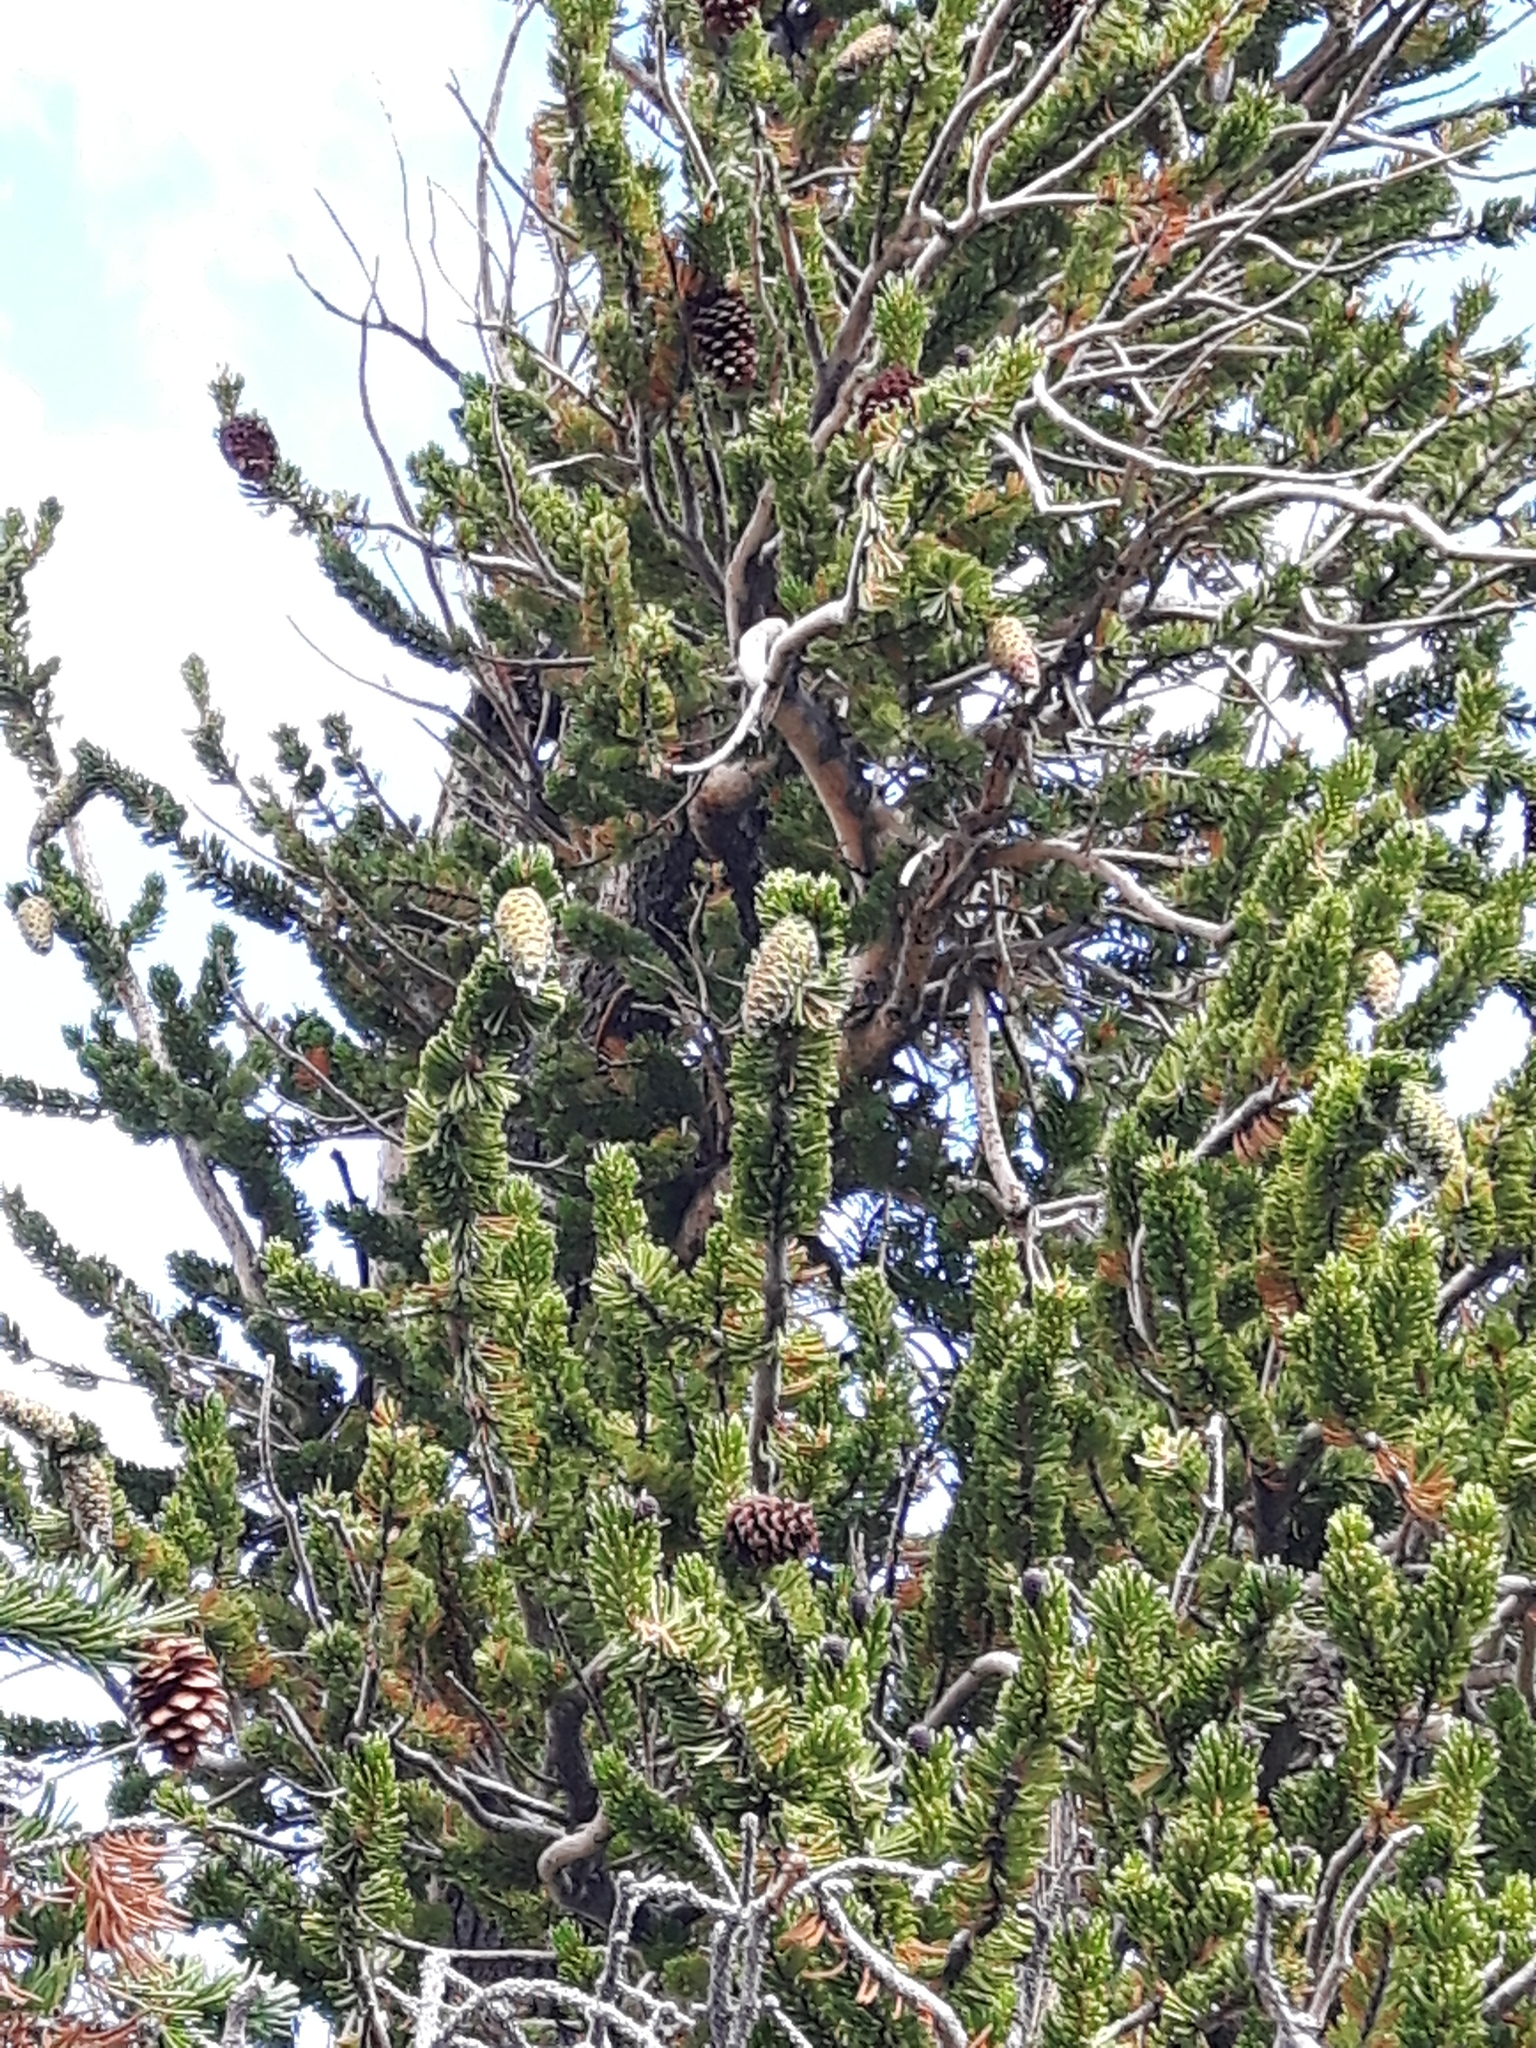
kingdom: Plantae
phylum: Tracheophyta
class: Pinopsida
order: Pinales
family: Pinaceae
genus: Pinus
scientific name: Pinus longaeva
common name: Intermountain bristlecone pine
